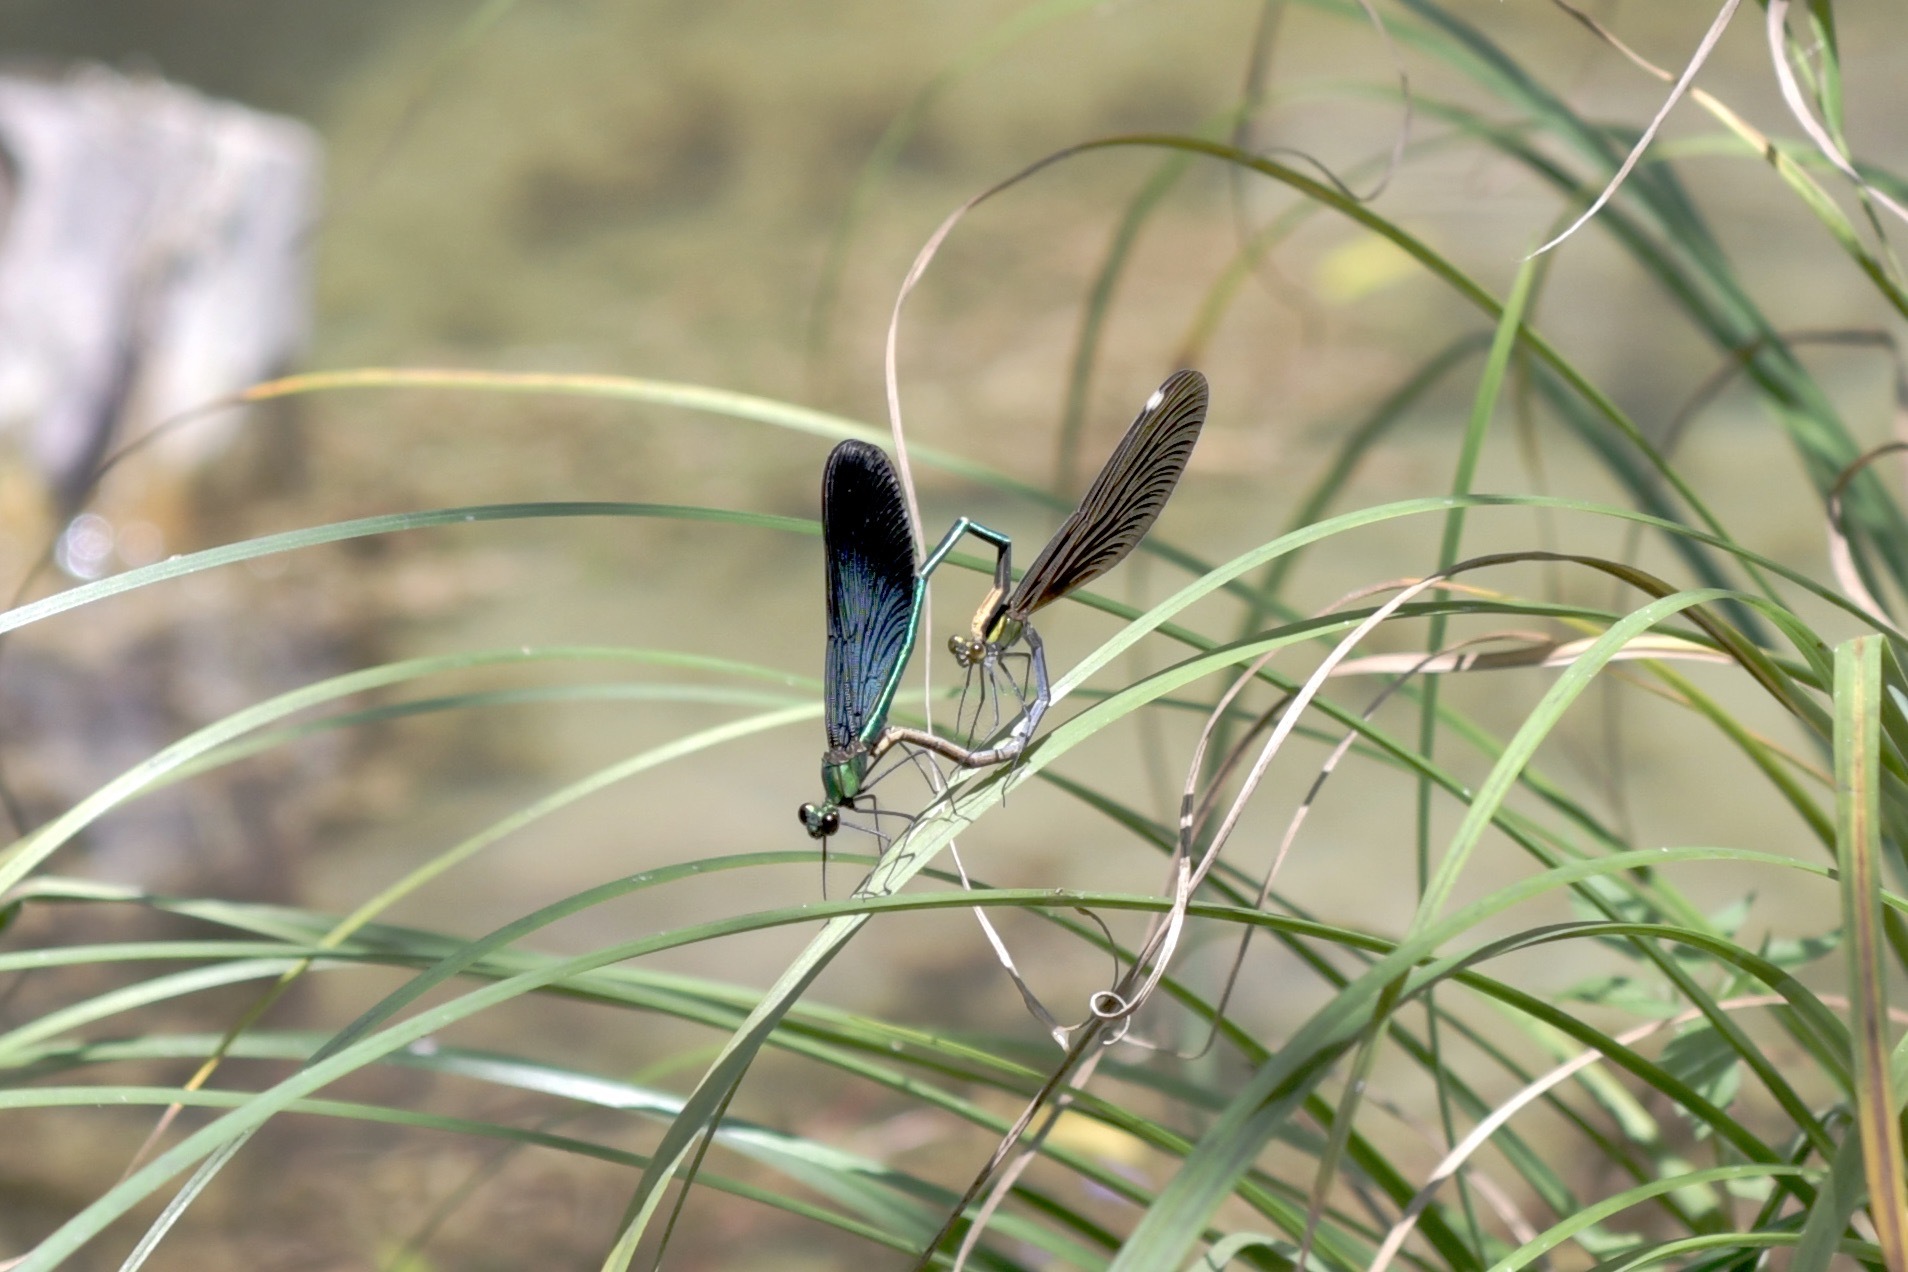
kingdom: Animalia
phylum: Arthropoda
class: Insecta
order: Odonata
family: Calopterygidae
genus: Matrona
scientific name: Matrona basilaris
